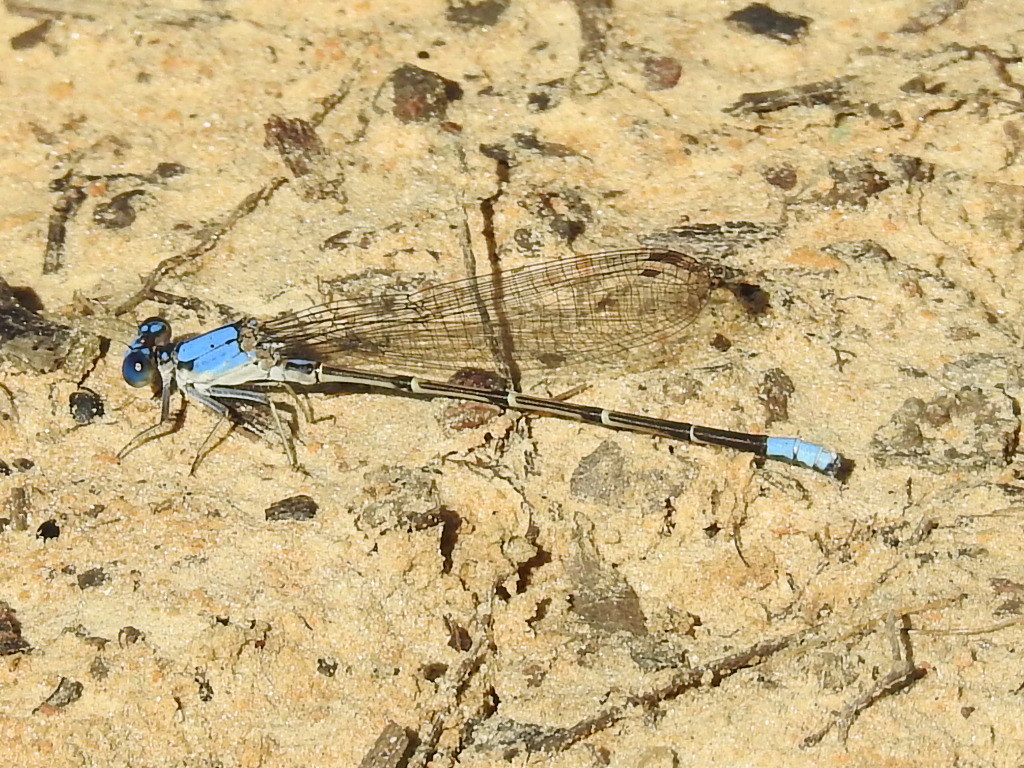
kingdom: Animalia
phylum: Arthropoda
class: Insecta
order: Odonata
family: Coenagrionidae
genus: Argia
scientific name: Argia apicalis
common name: Blue-fronted dancer
